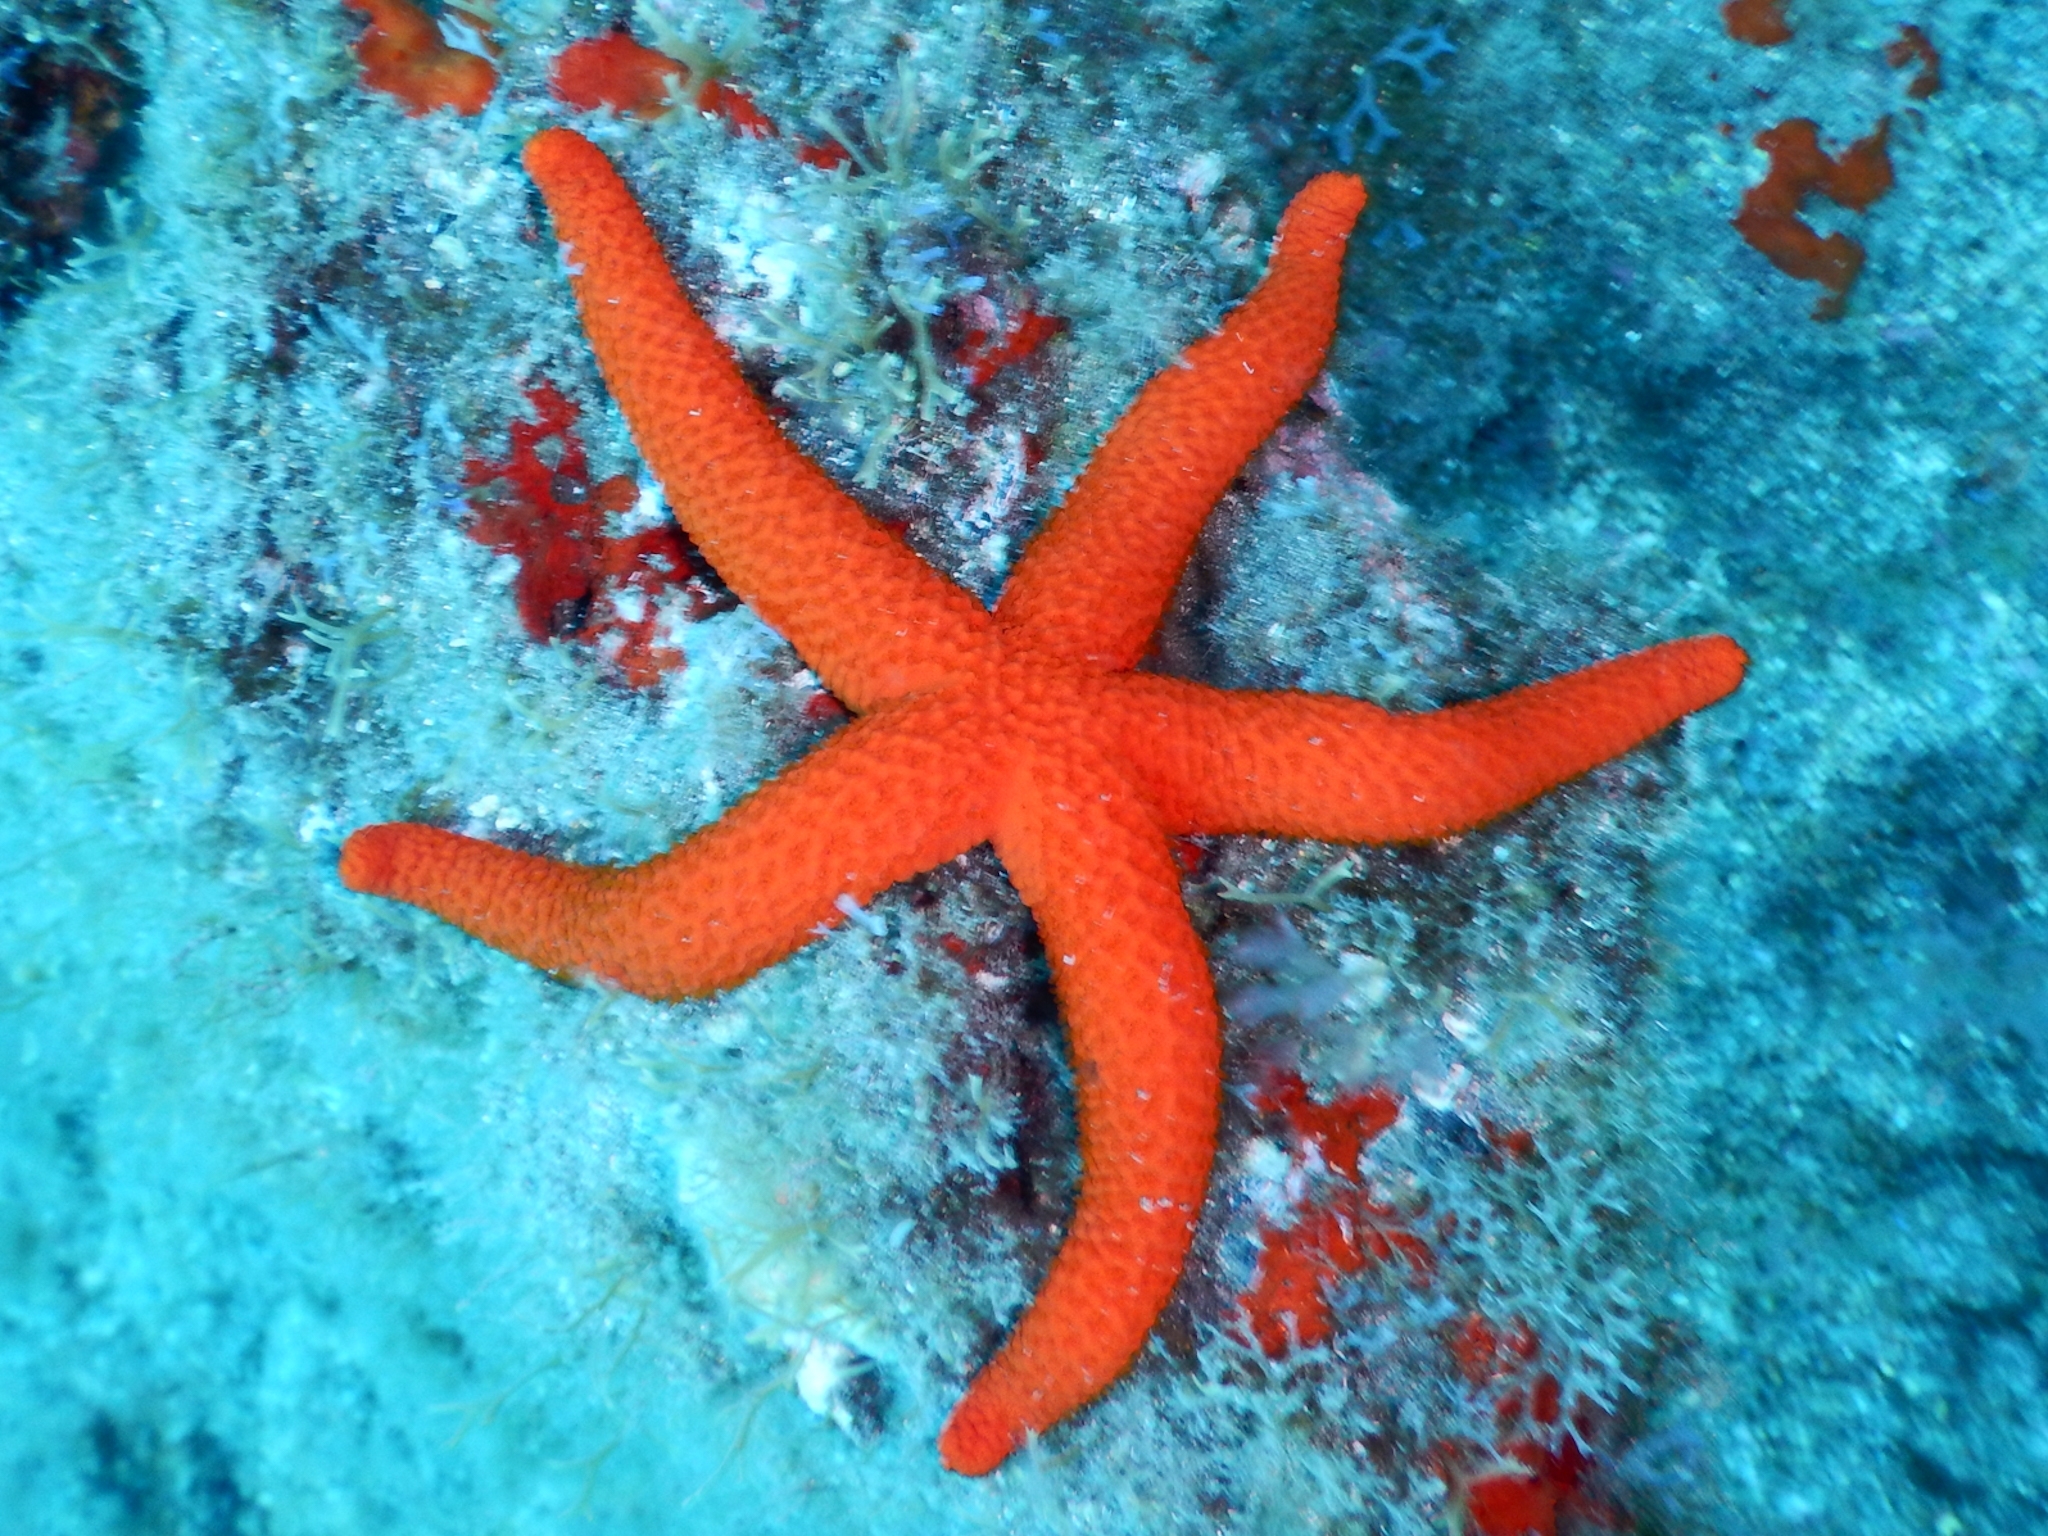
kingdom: Animalia
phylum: Echinodermata
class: Asteroidea
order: Spinulosida
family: Echinasteridae
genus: Echinaster
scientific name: Echinaster sepositus
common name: Red starfish
